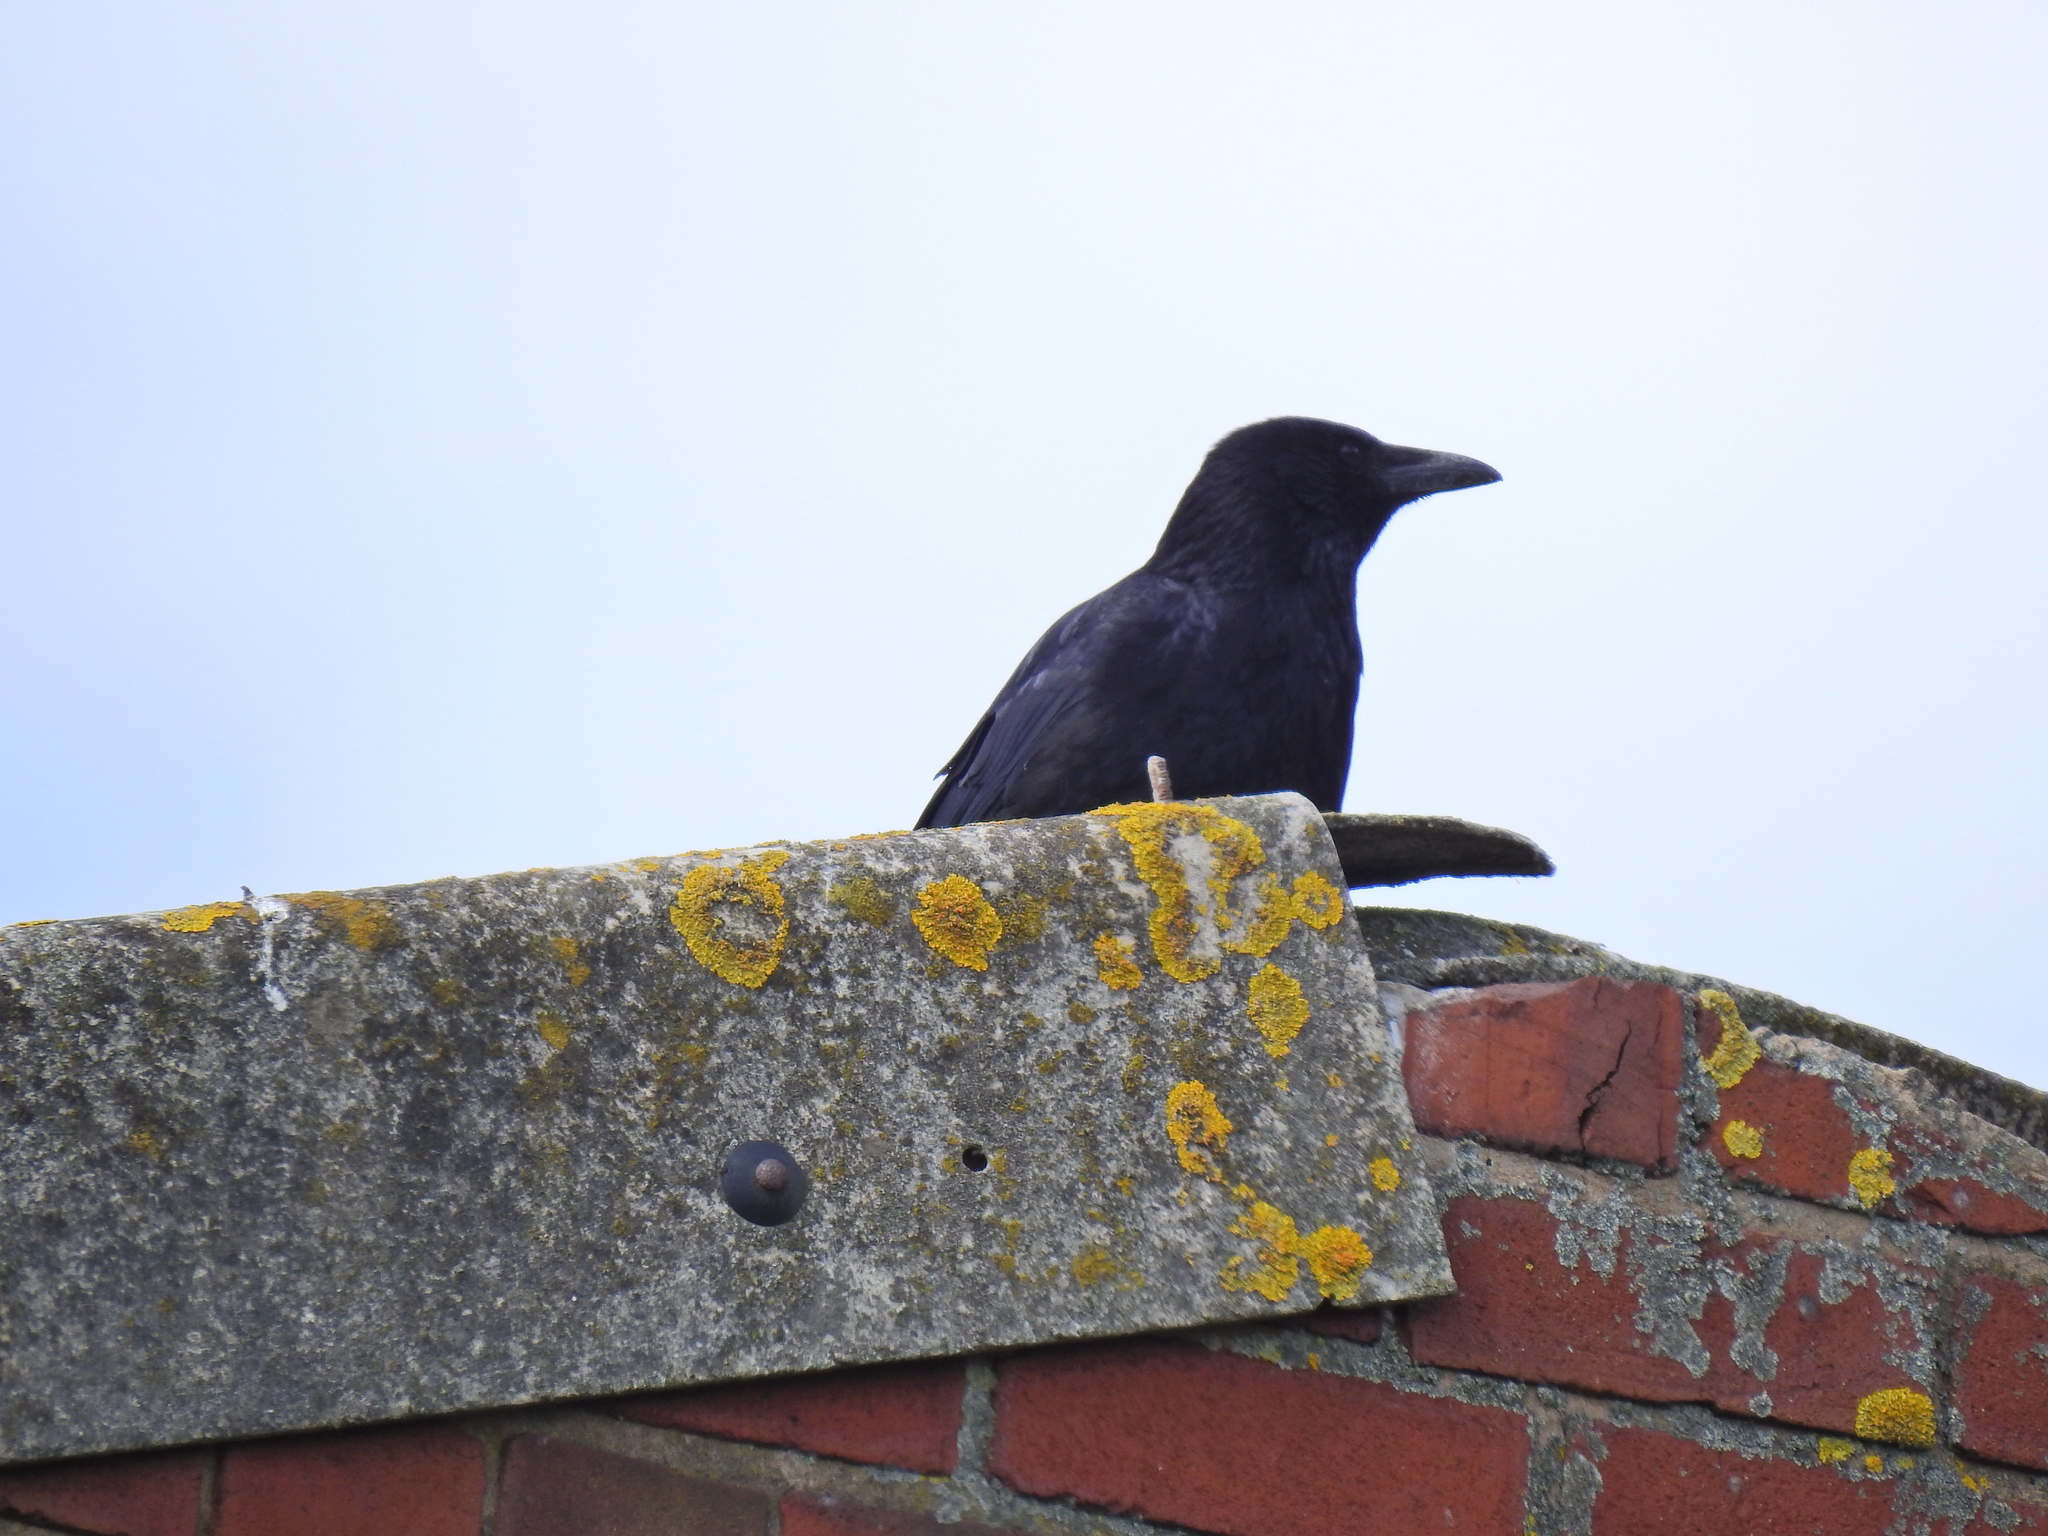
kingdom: Animalia
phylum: Chordata
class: Aves
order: Passeriformes
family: Corvidae
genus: Corvus
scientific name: Corvus corone
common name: Carrion crow
